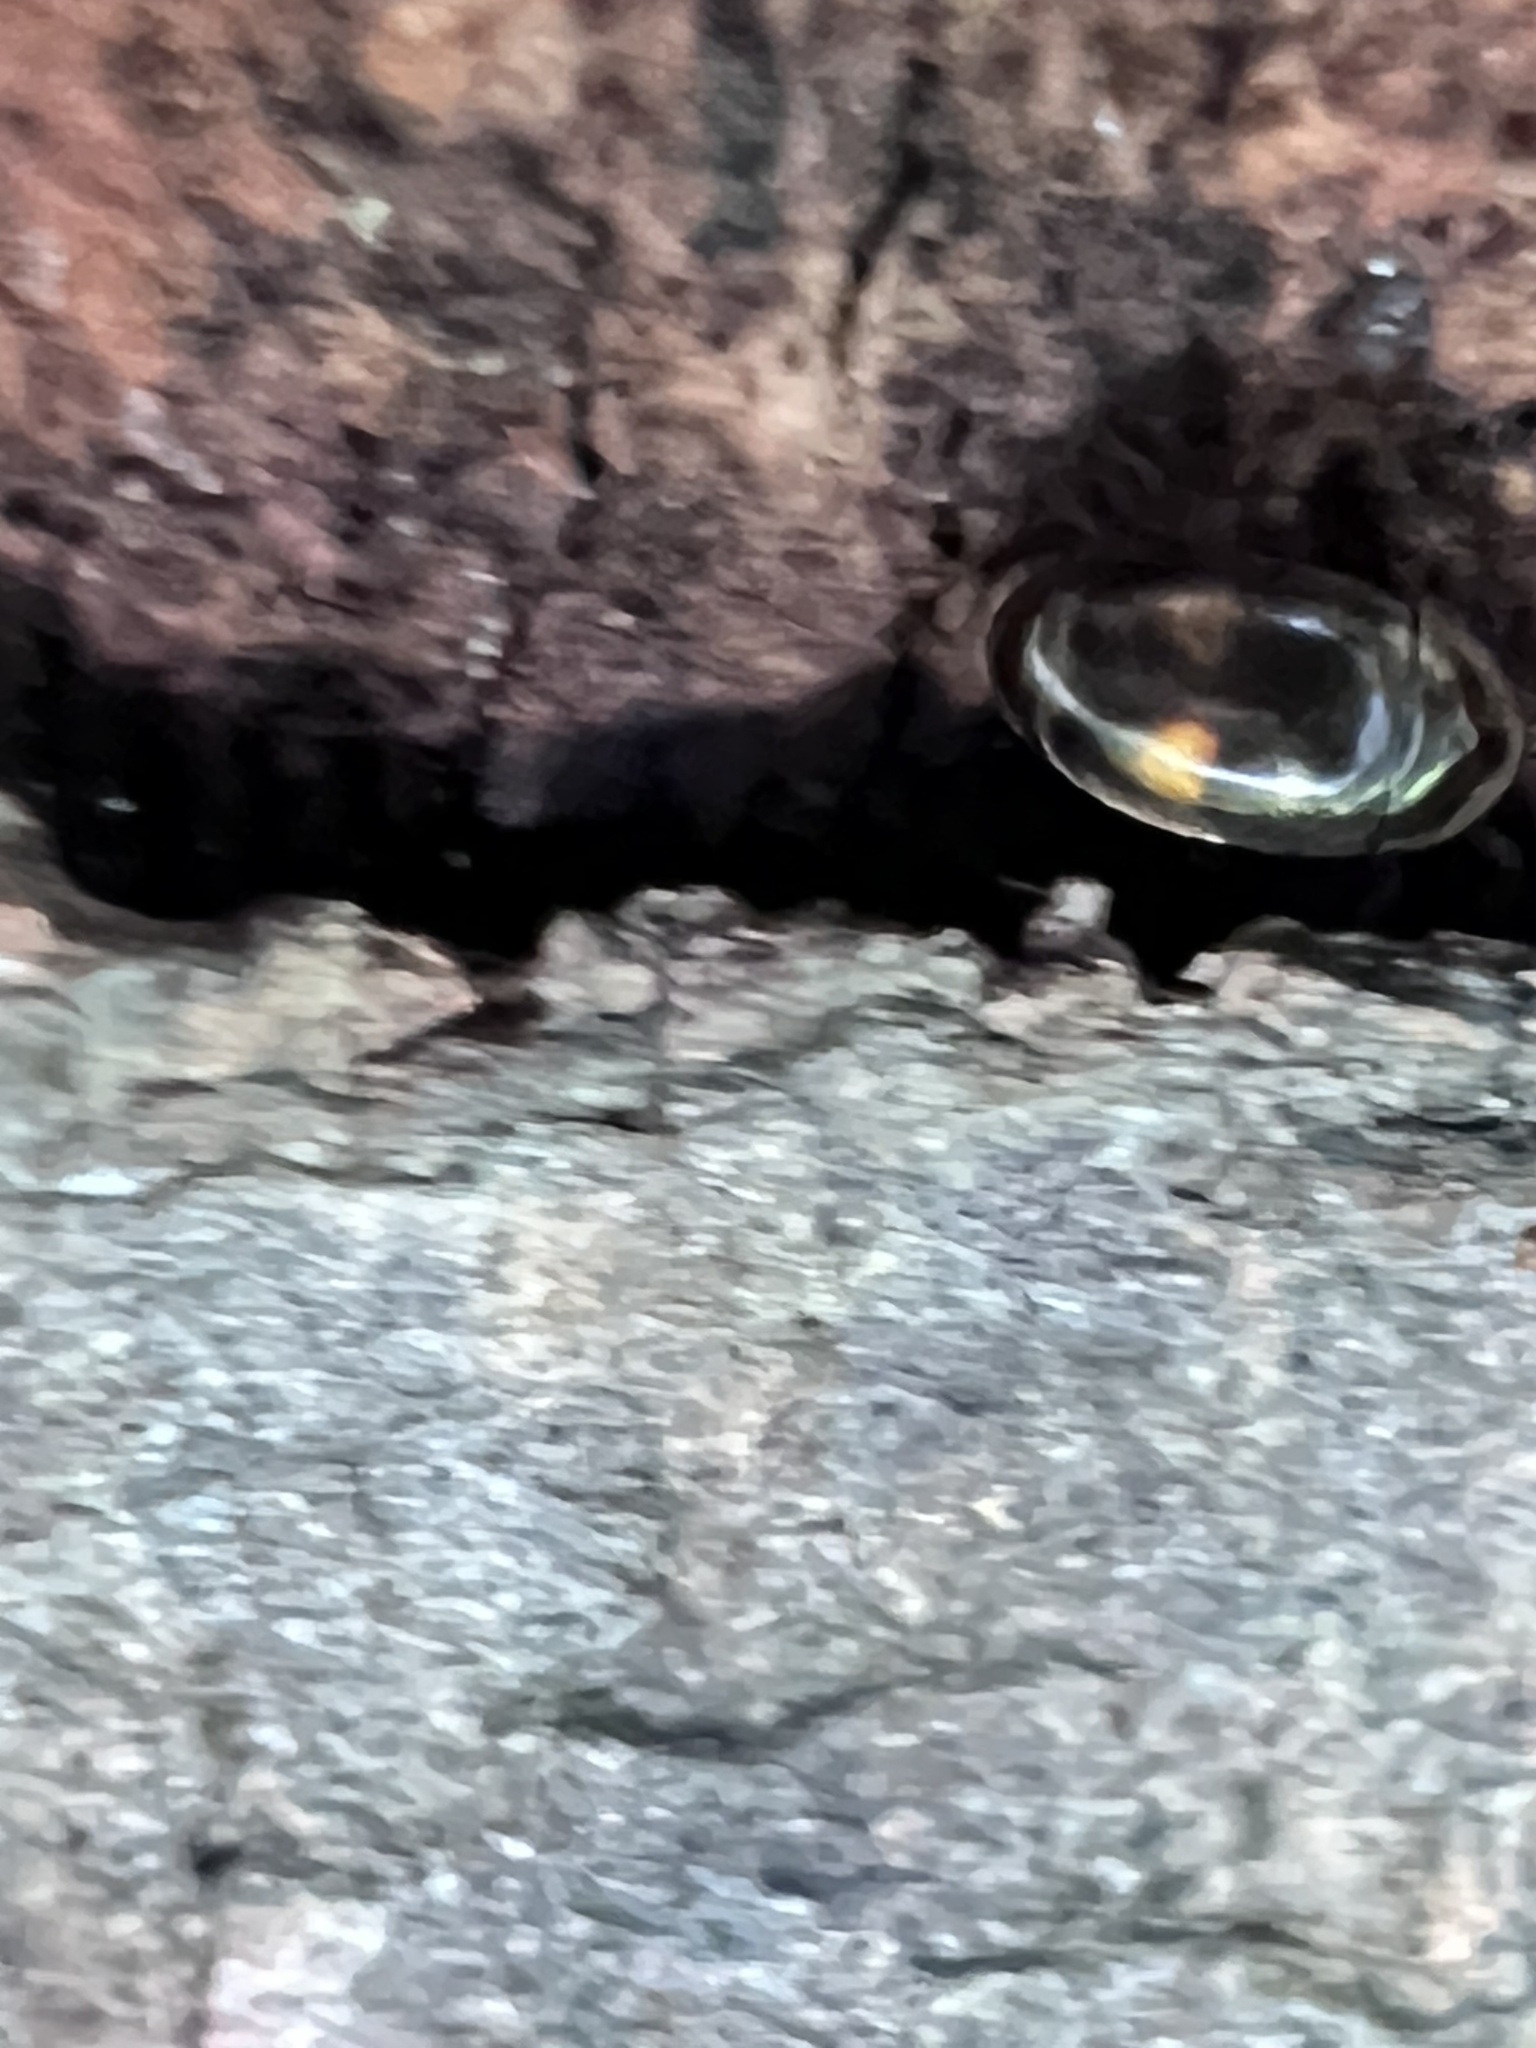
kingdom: Animalia
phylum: Arthropoda
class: Insecta
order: Coleoptera
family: Corylophidae
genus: Clypastraea
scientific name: Clypastraea lunata
